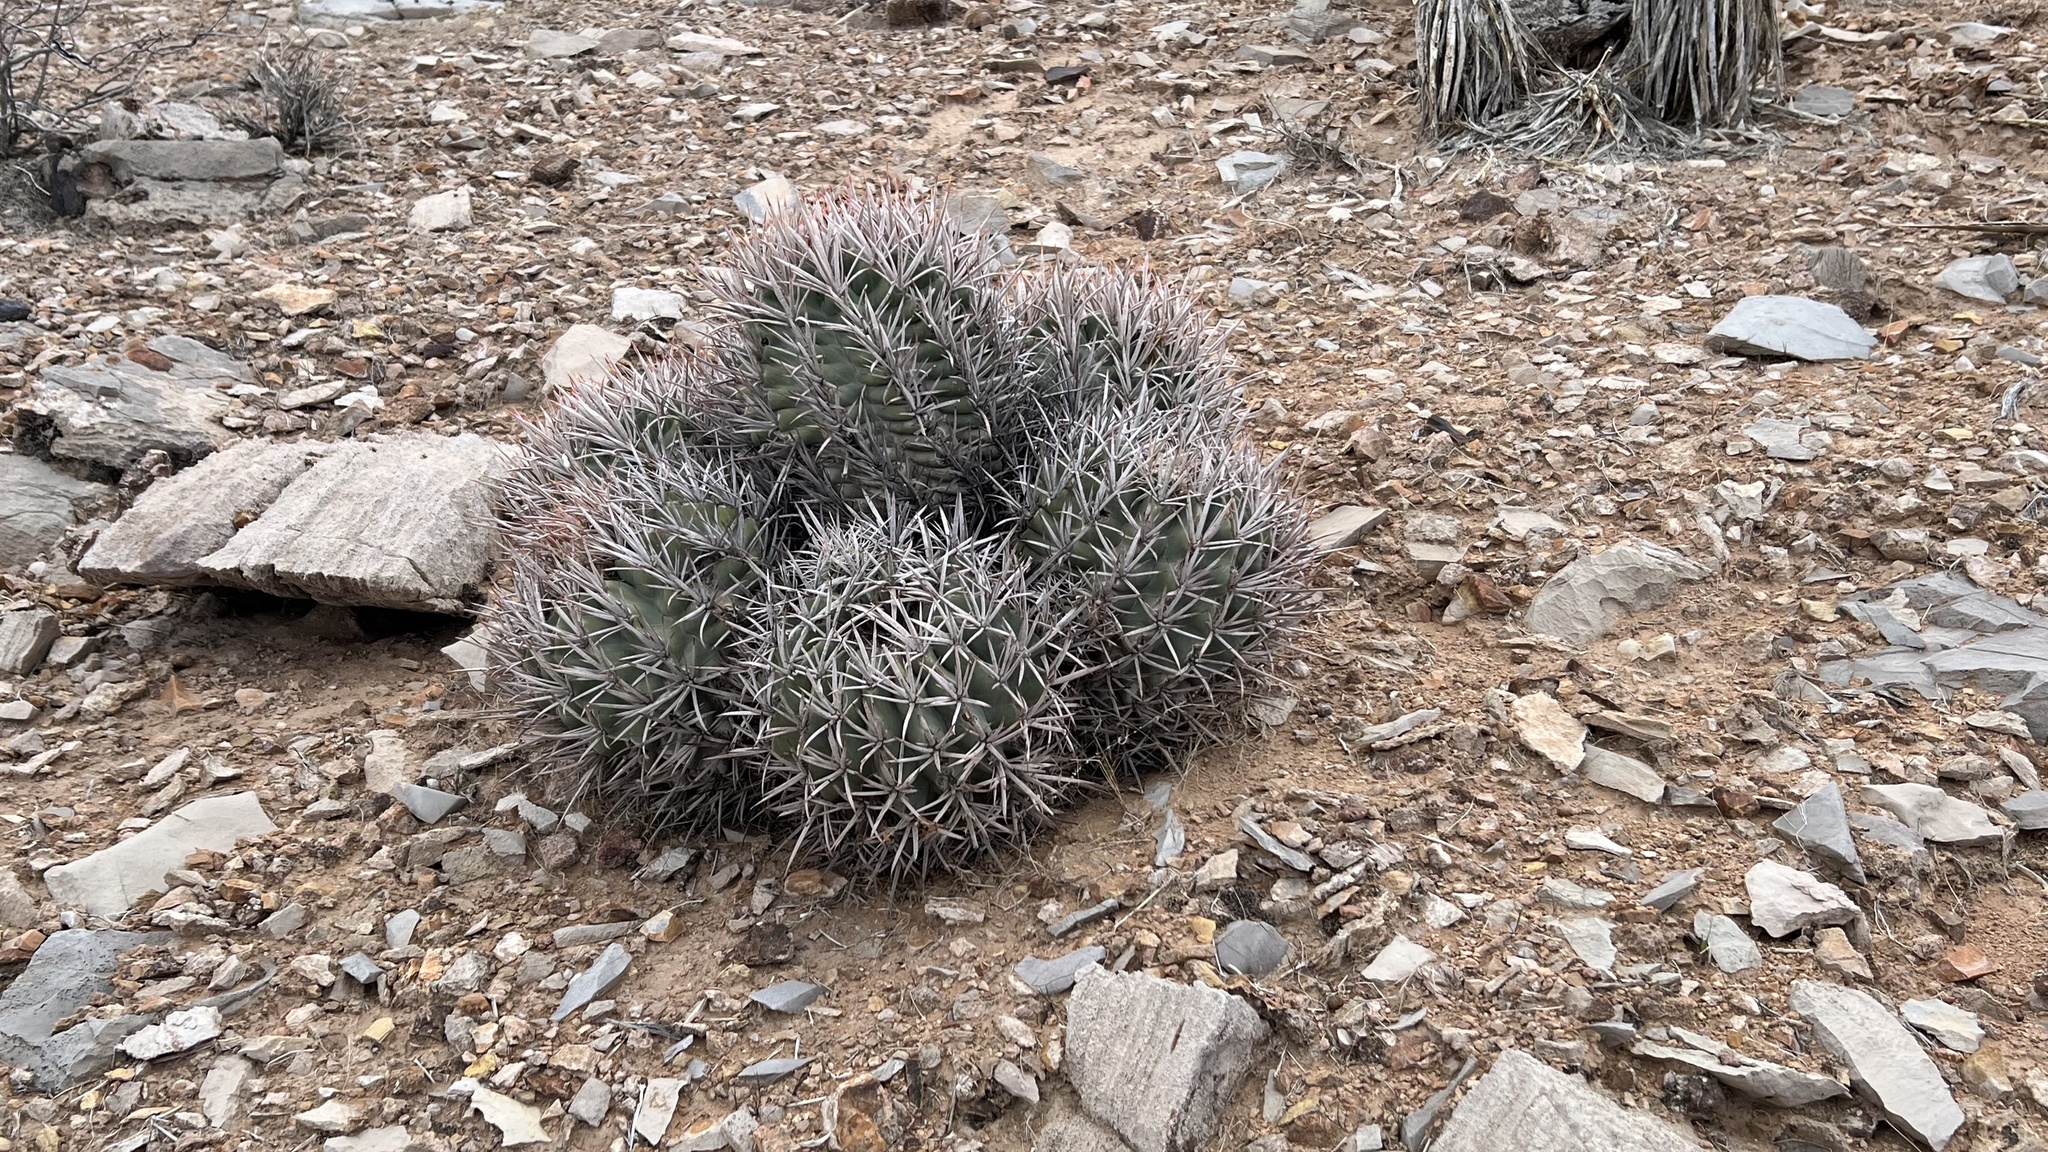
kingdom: Plantae
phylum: Tracheophyta
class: Magnoliopsida
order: Caryophyllales
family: Cactaceae
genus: Echinocactus
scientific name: Echinocactus polycephalus
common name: Cottontop cactus
